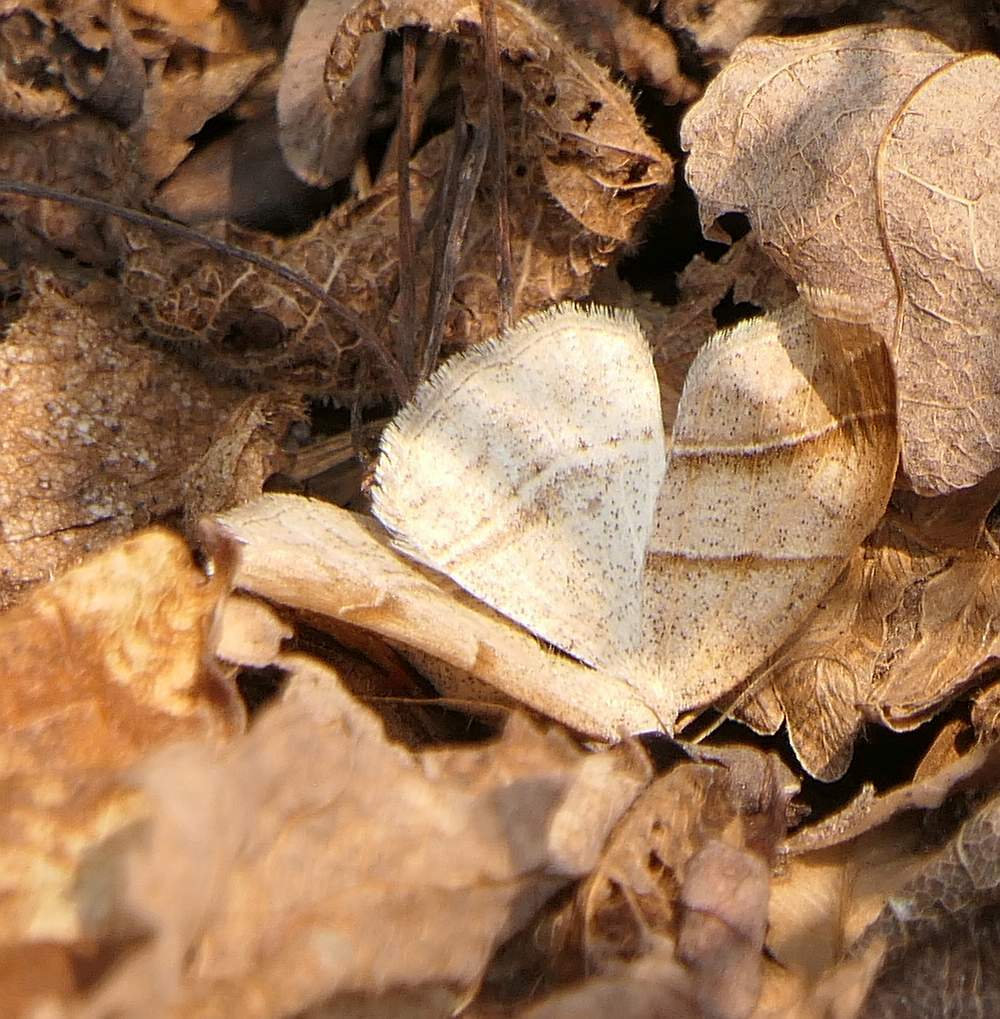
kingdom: Animalia
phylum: Arthropoda
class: Insecta
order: Lepidoptera
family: Pterophoridae
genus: Pterophorus
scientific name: Pterophorus Petrophora subaequaria
